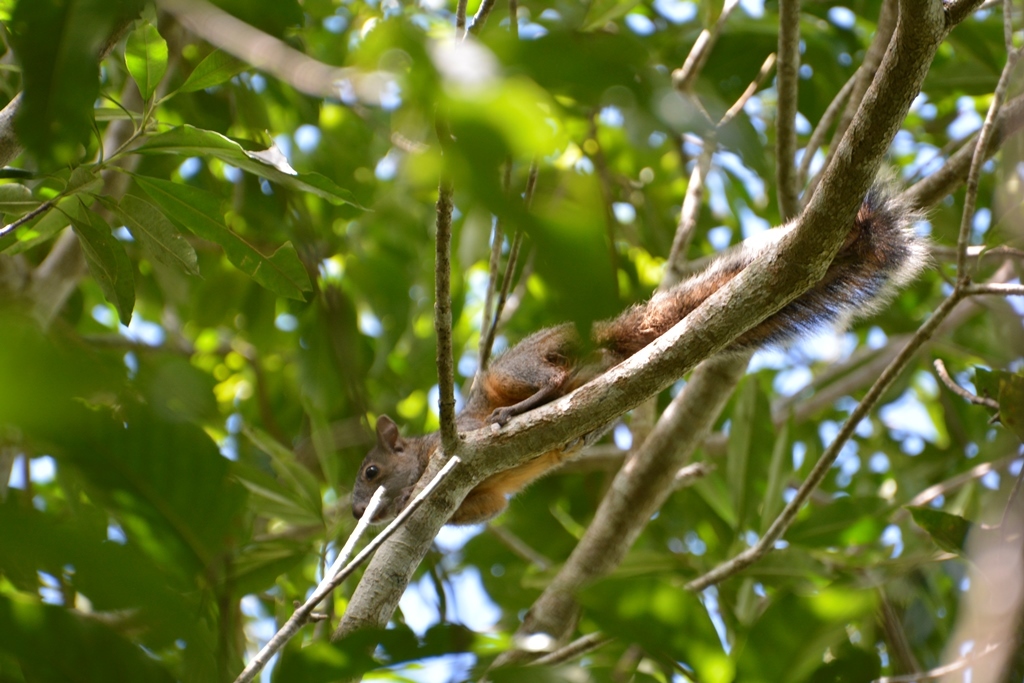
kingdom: Animalia
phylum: Chordata
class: Mammalia
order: Rodentia
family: Sciuridae
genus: Sciurus
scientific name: Sciurus aureogaster
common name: Red-bellied squirrel
